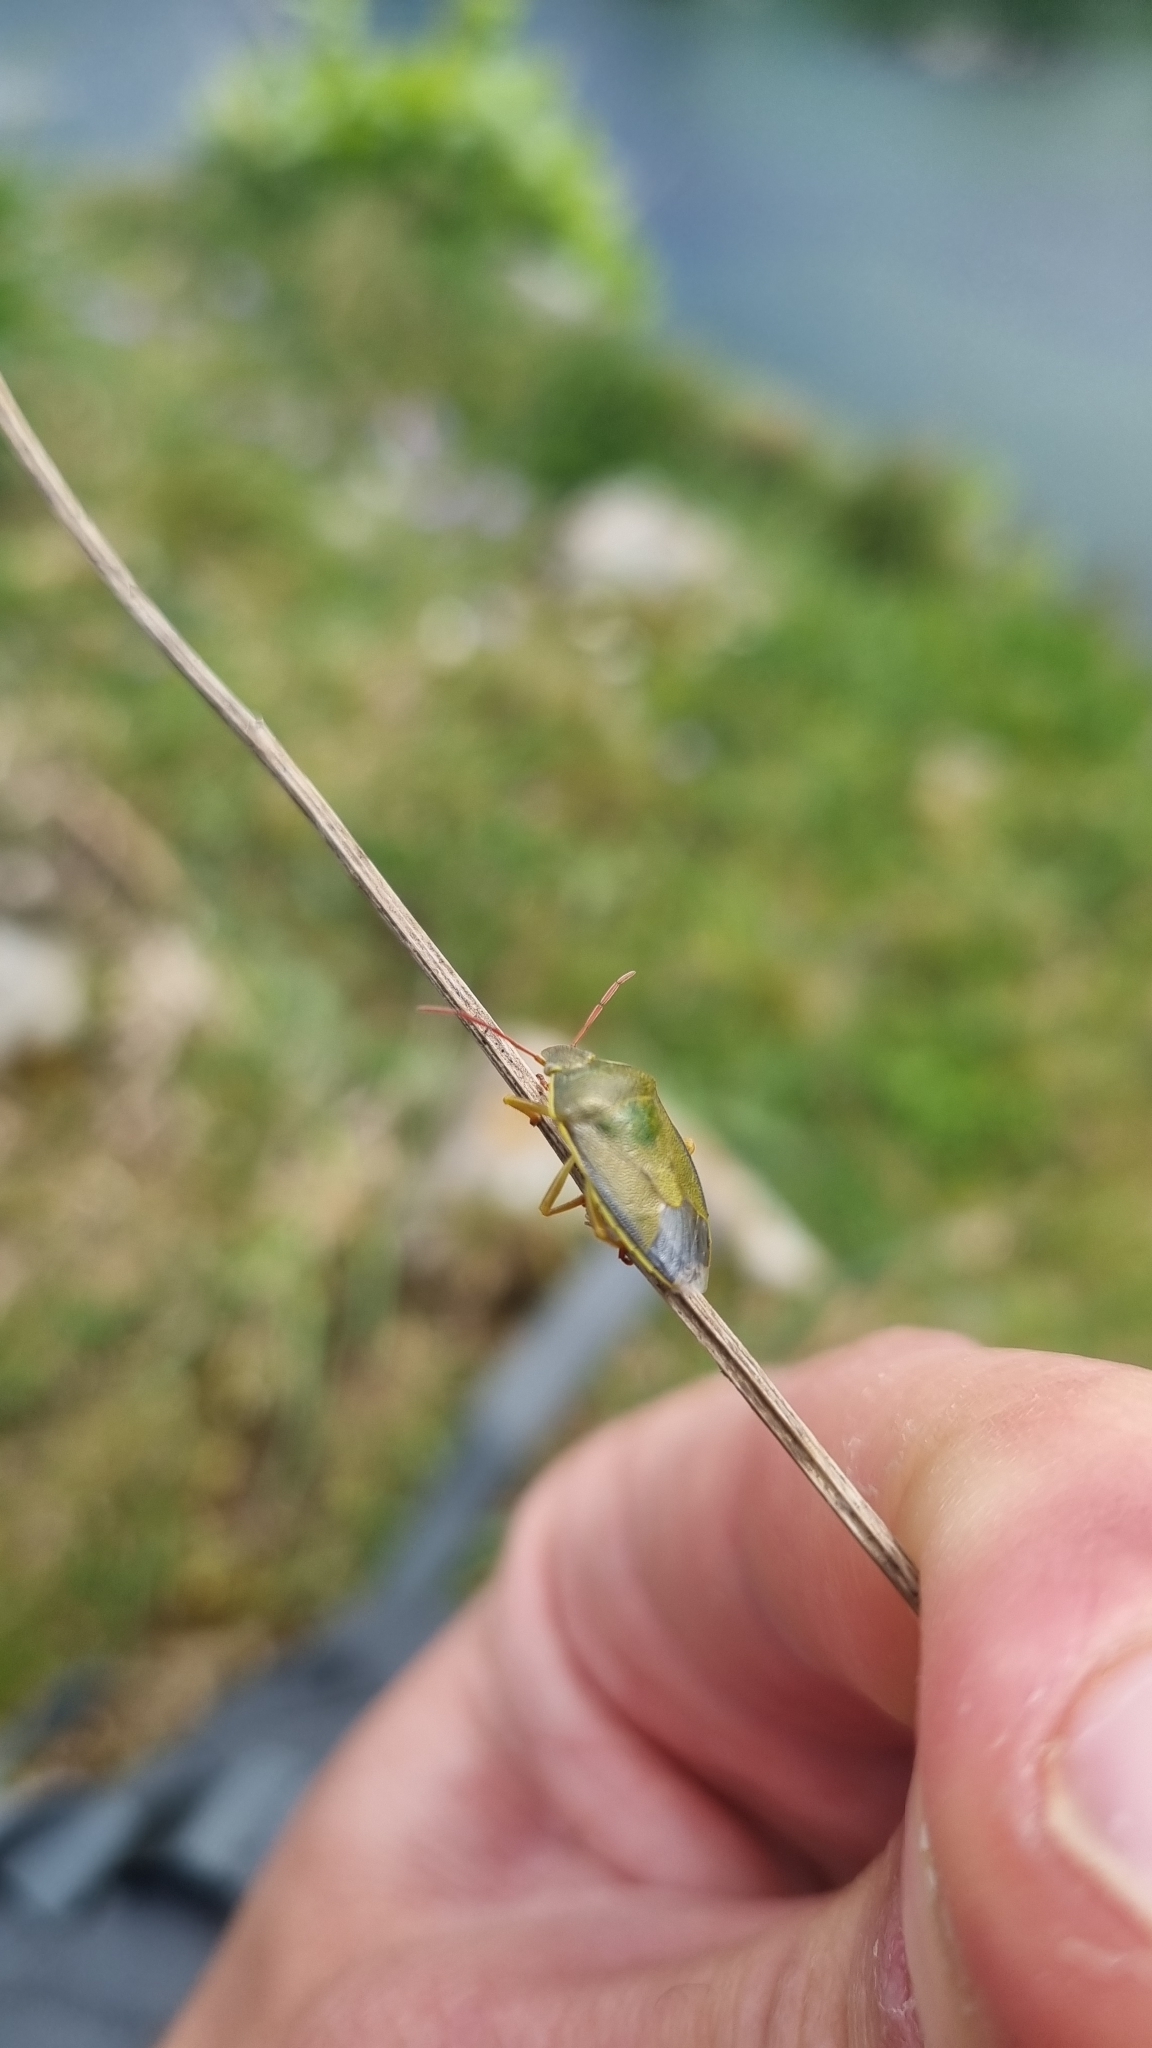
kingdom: Animalia
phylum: Arthropoda
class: Insecta
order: Hemiptera
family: Pentatomidae
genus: Piezodorus
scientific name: Piezodorus lituratus
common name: Stink bug
